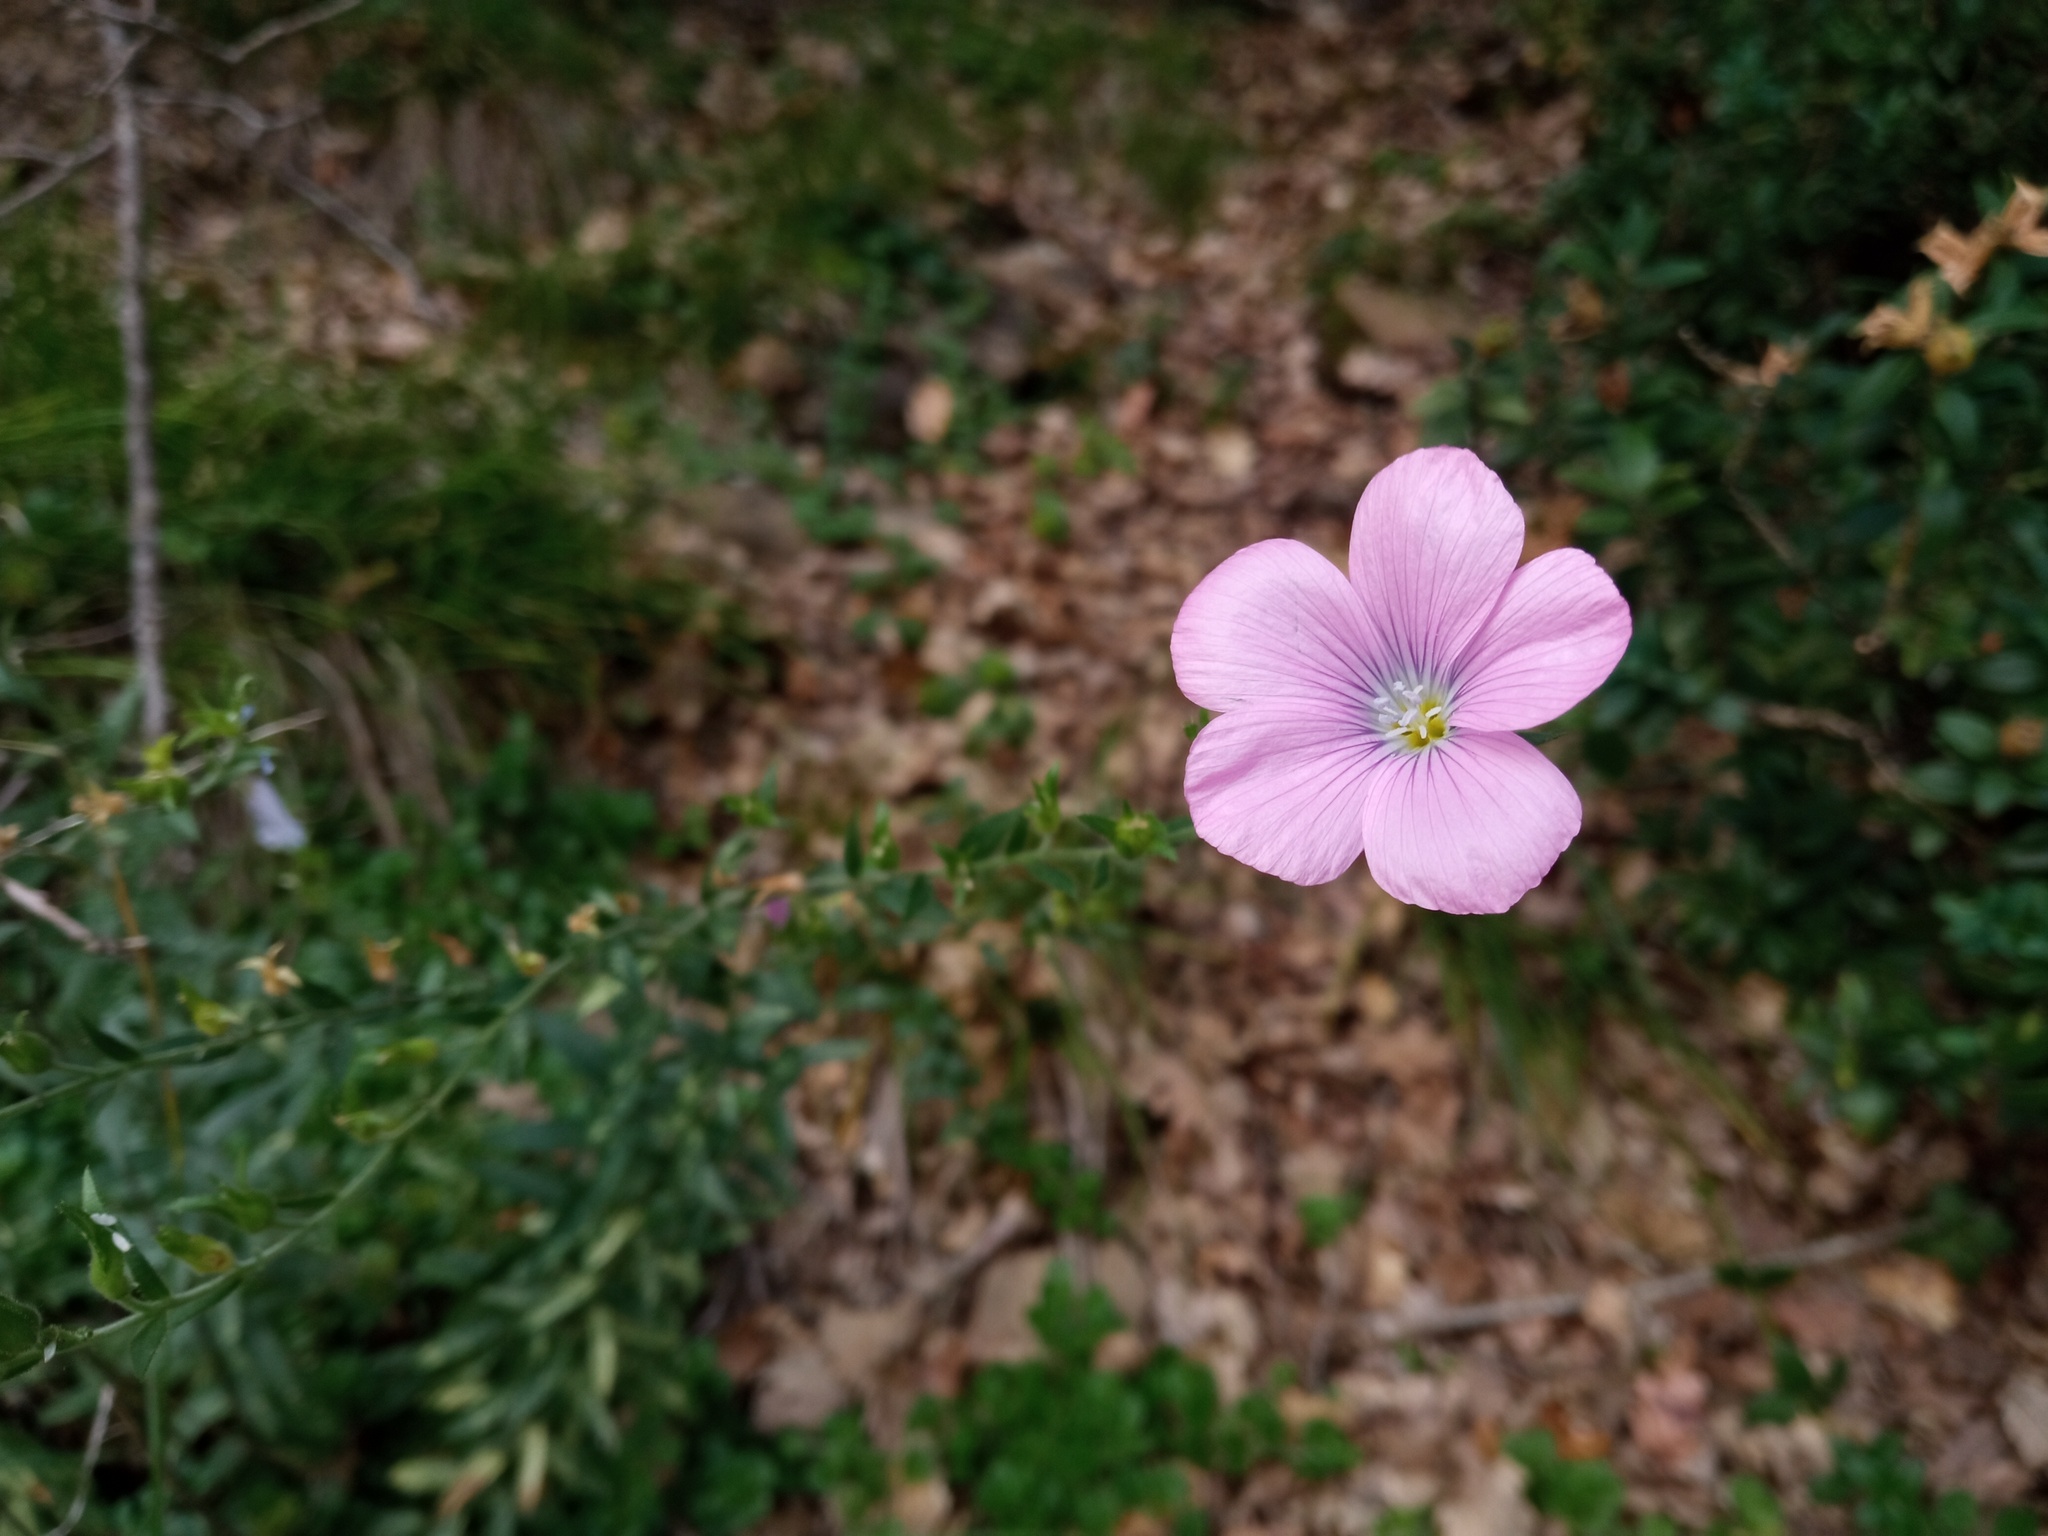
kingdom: Plantae
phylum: Tracheophyta
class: Magnoliopsida
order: Malpighiales
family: Linaceae
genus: Linum
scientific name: Linum viscosum
